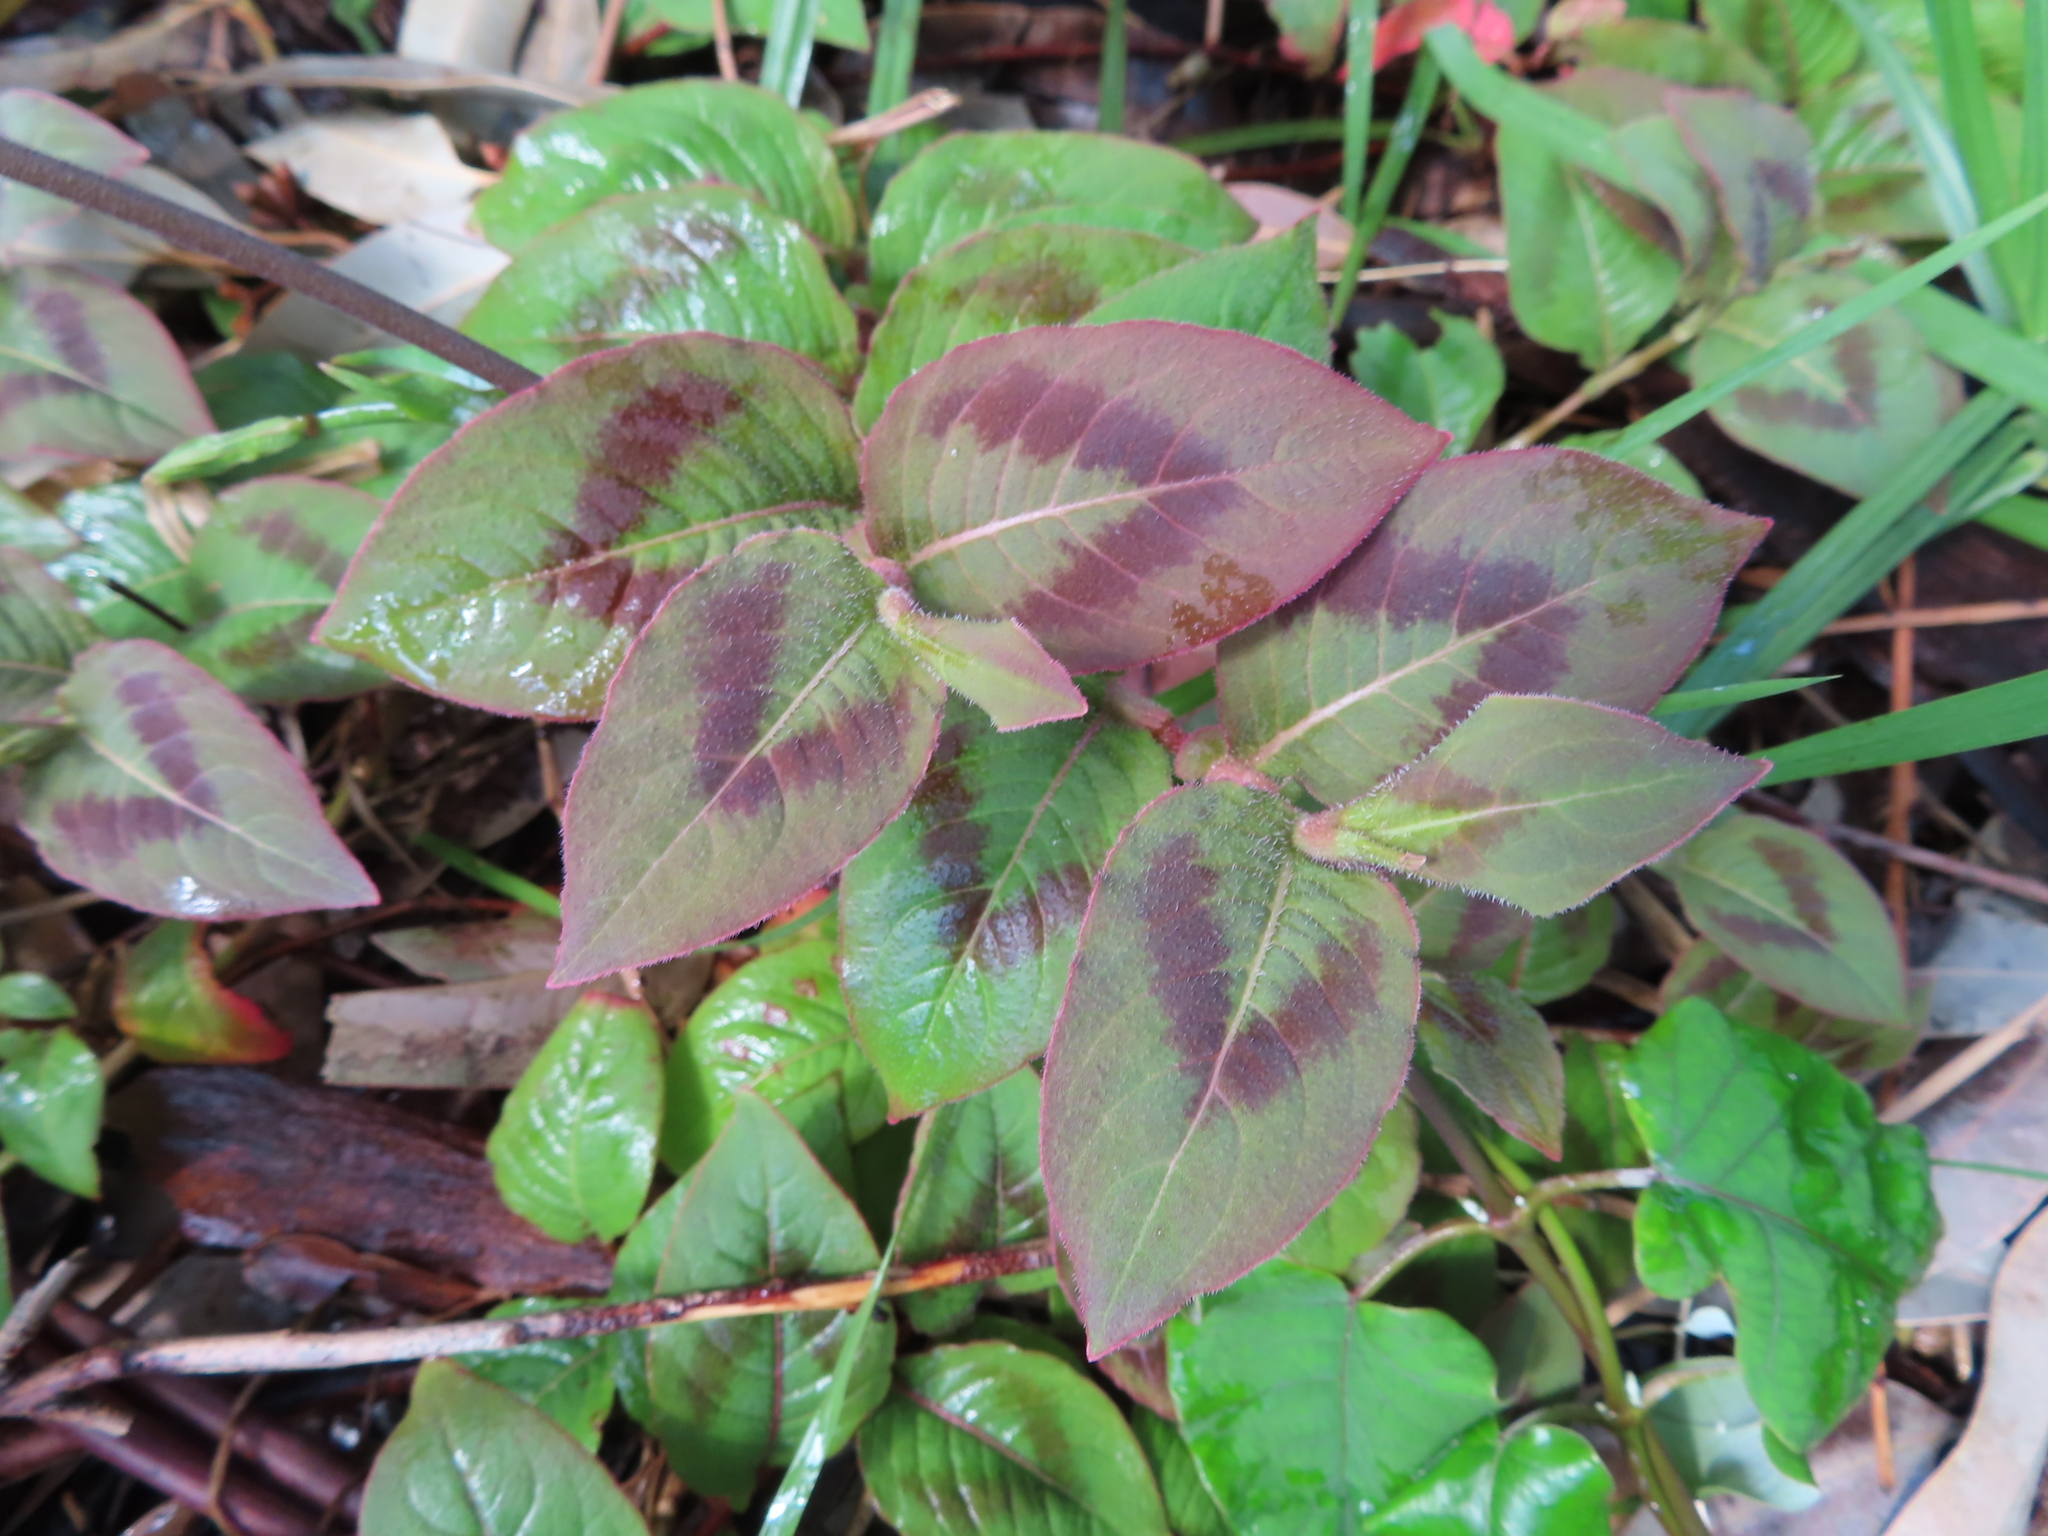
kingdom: Plantae
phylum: Tracheophyta
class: Magnoliopsida
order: Caryophyllales
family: Polygonaceae
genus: Persicaria
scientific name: Persicaria capitata
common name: Pinkhead smartweed
